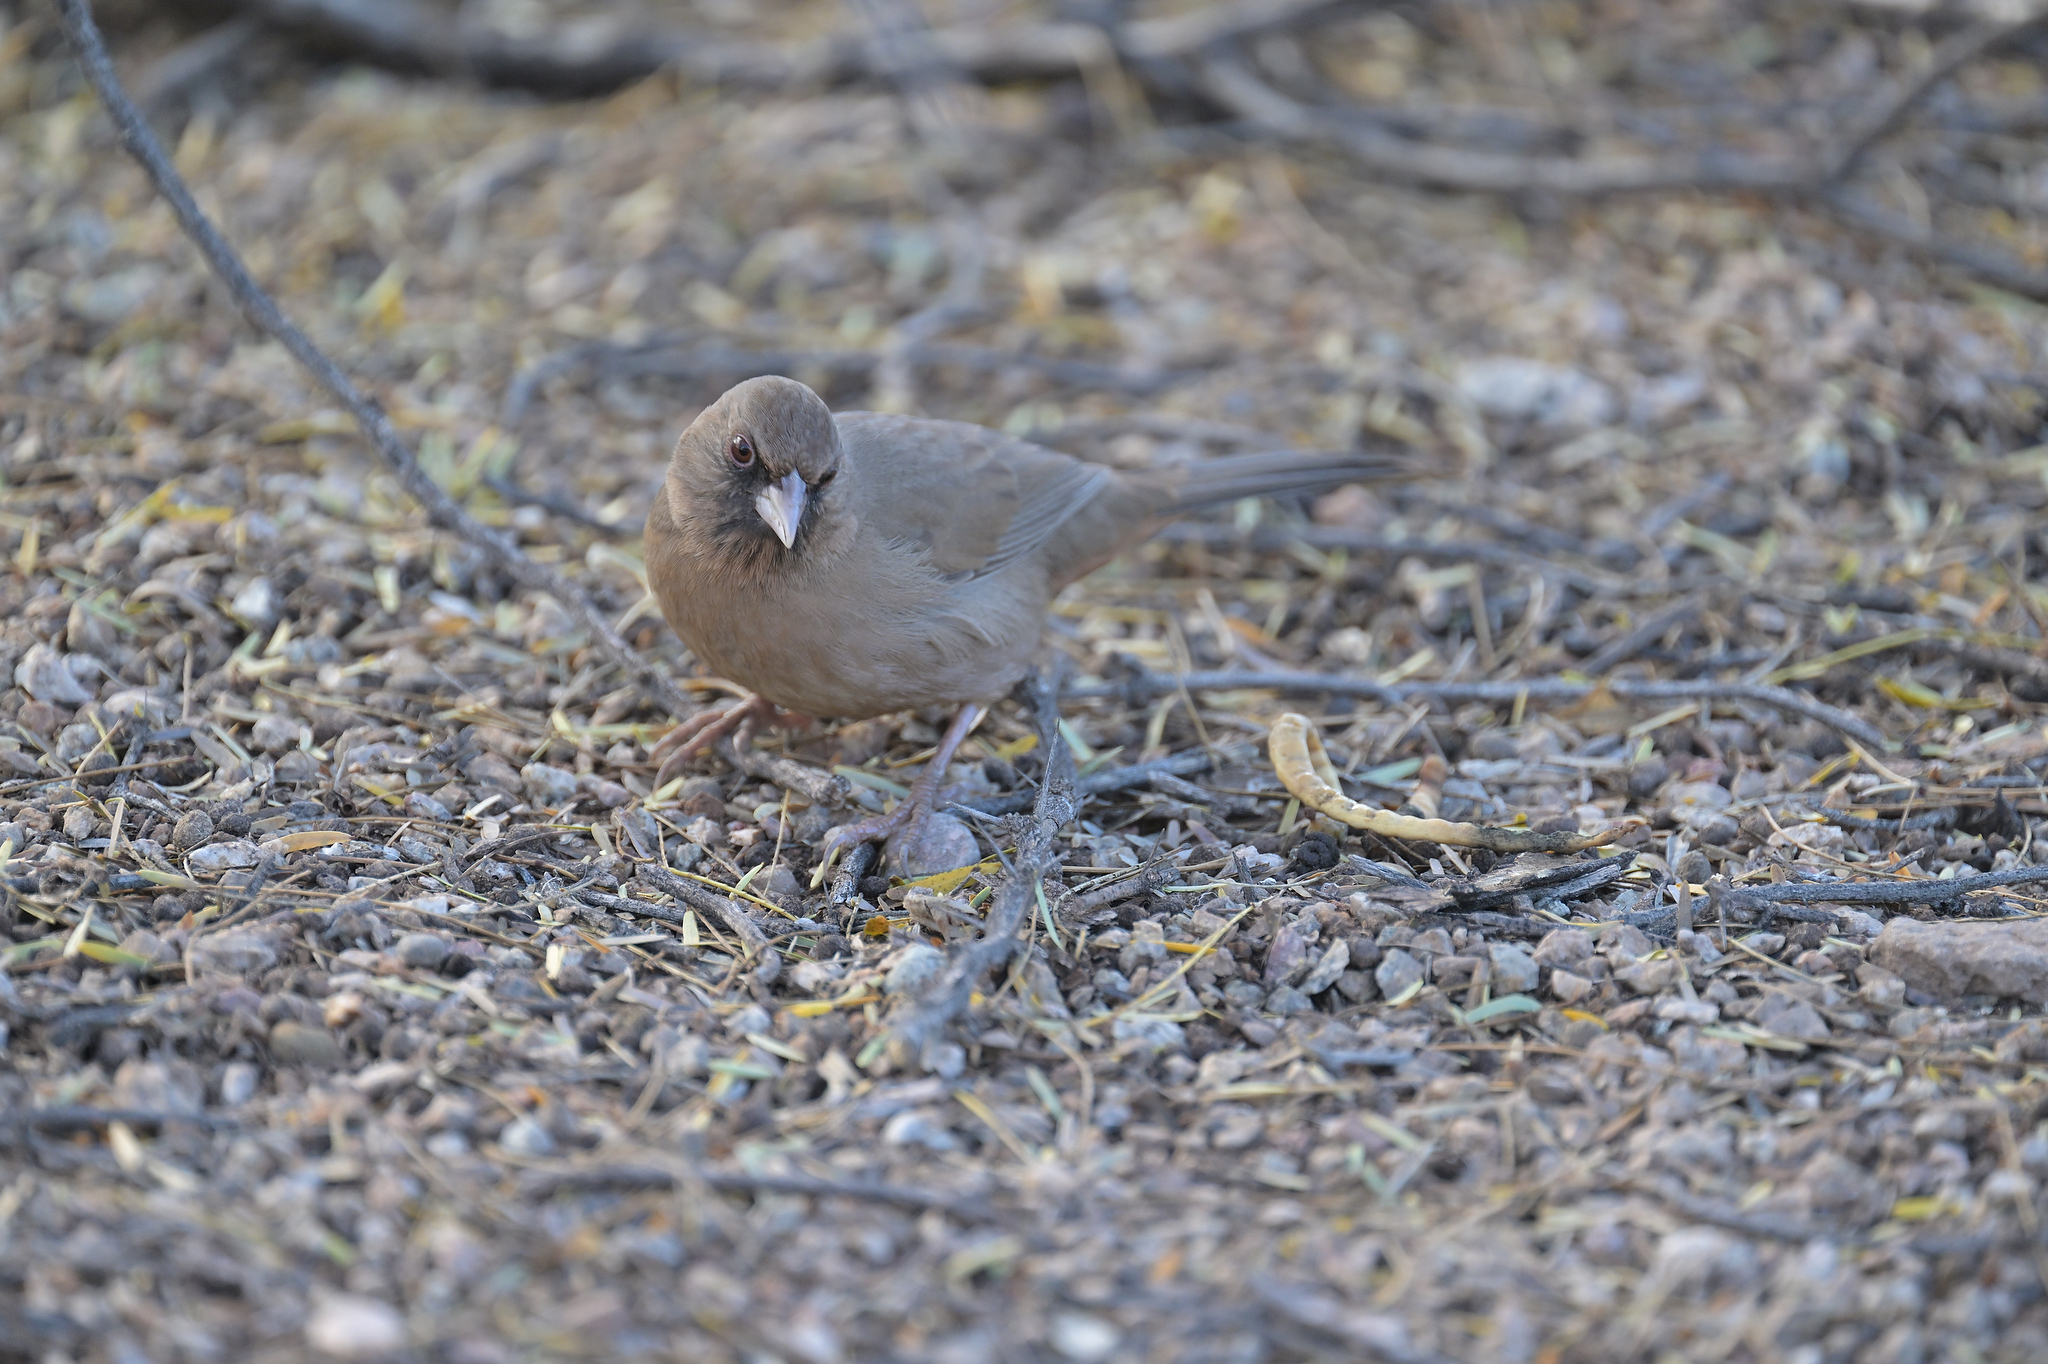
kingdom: Animalia
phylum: Chordata
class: Aves
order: Passeriformes
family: Passerellidae
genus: Melozone
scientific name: Melozone aberti
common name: Abert's towhee
